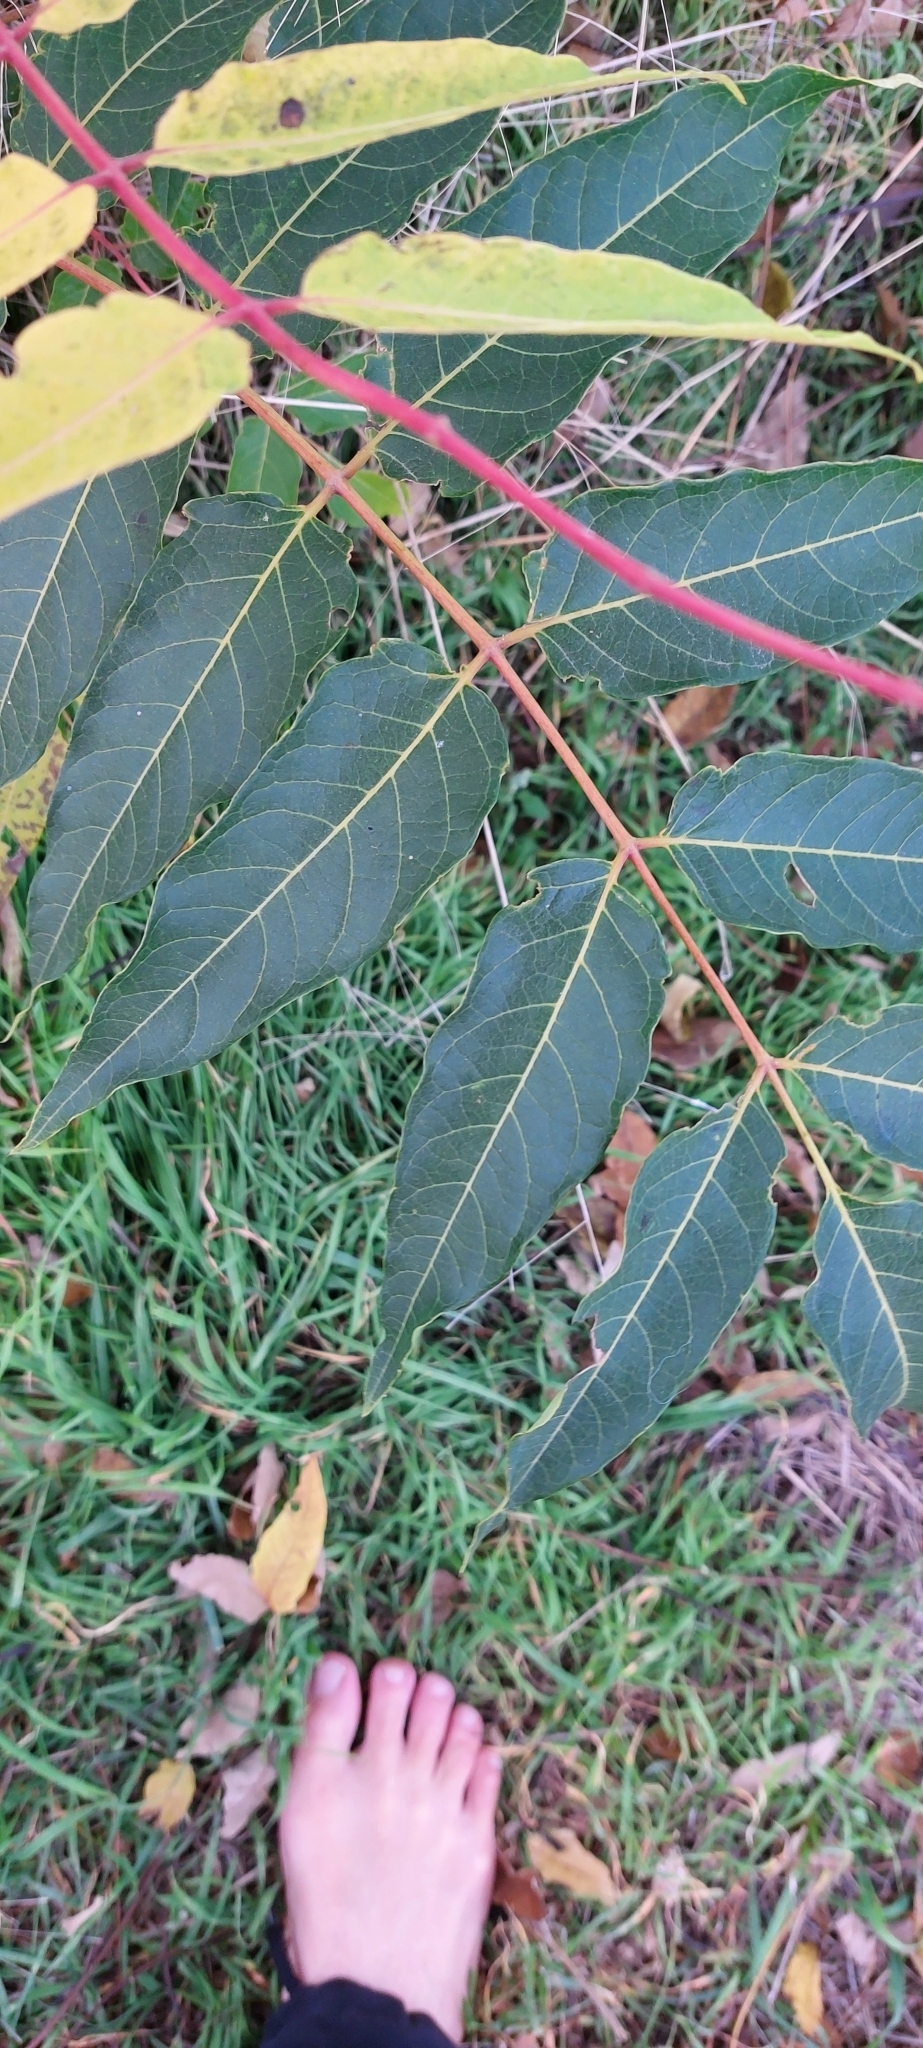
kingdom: Plantae
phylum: Tracheophyta
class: Magnoliopsida
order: Sapindales
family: Simaroubaceae
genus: Ailanthus
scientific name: Ailanthus altissima
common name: Tree-of-heaven
